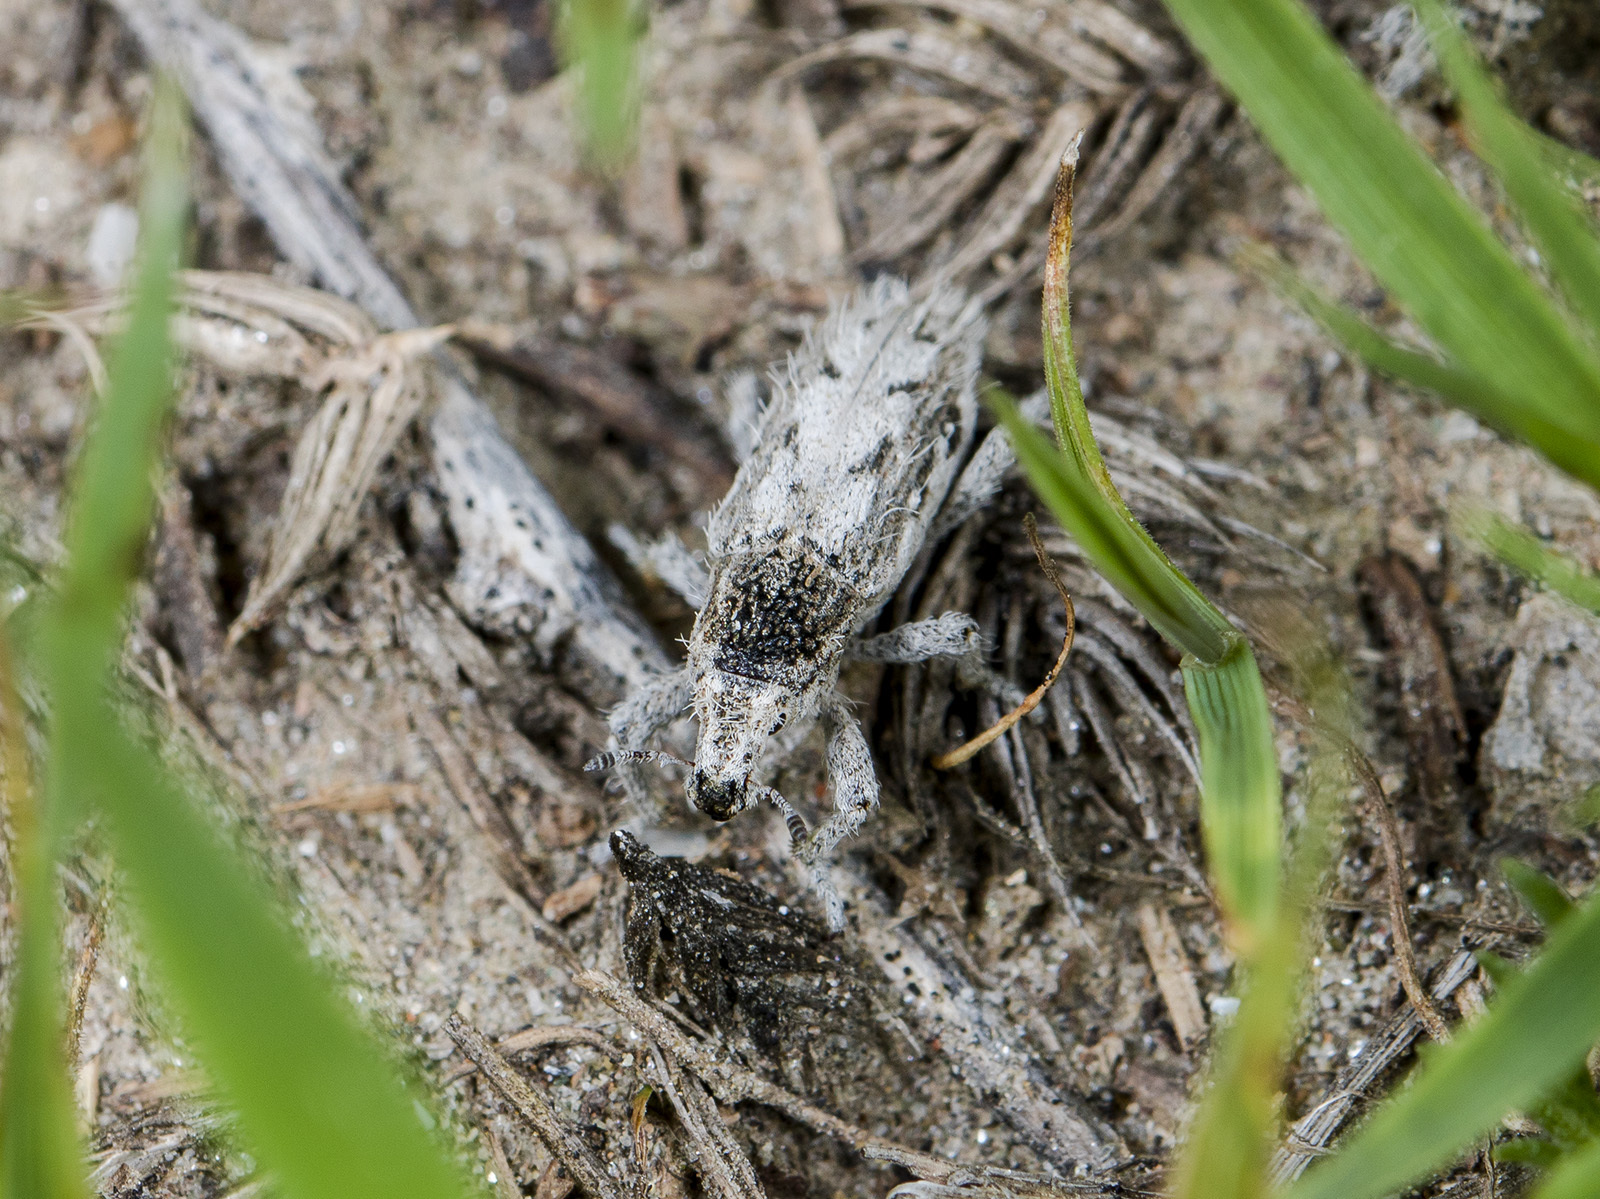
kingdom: Animalia
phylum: Arthropoda
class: Insecta
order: Coleoptera
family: Curculionidae
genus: Trichocleonus
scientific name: Trichocleonus leucophyllus
